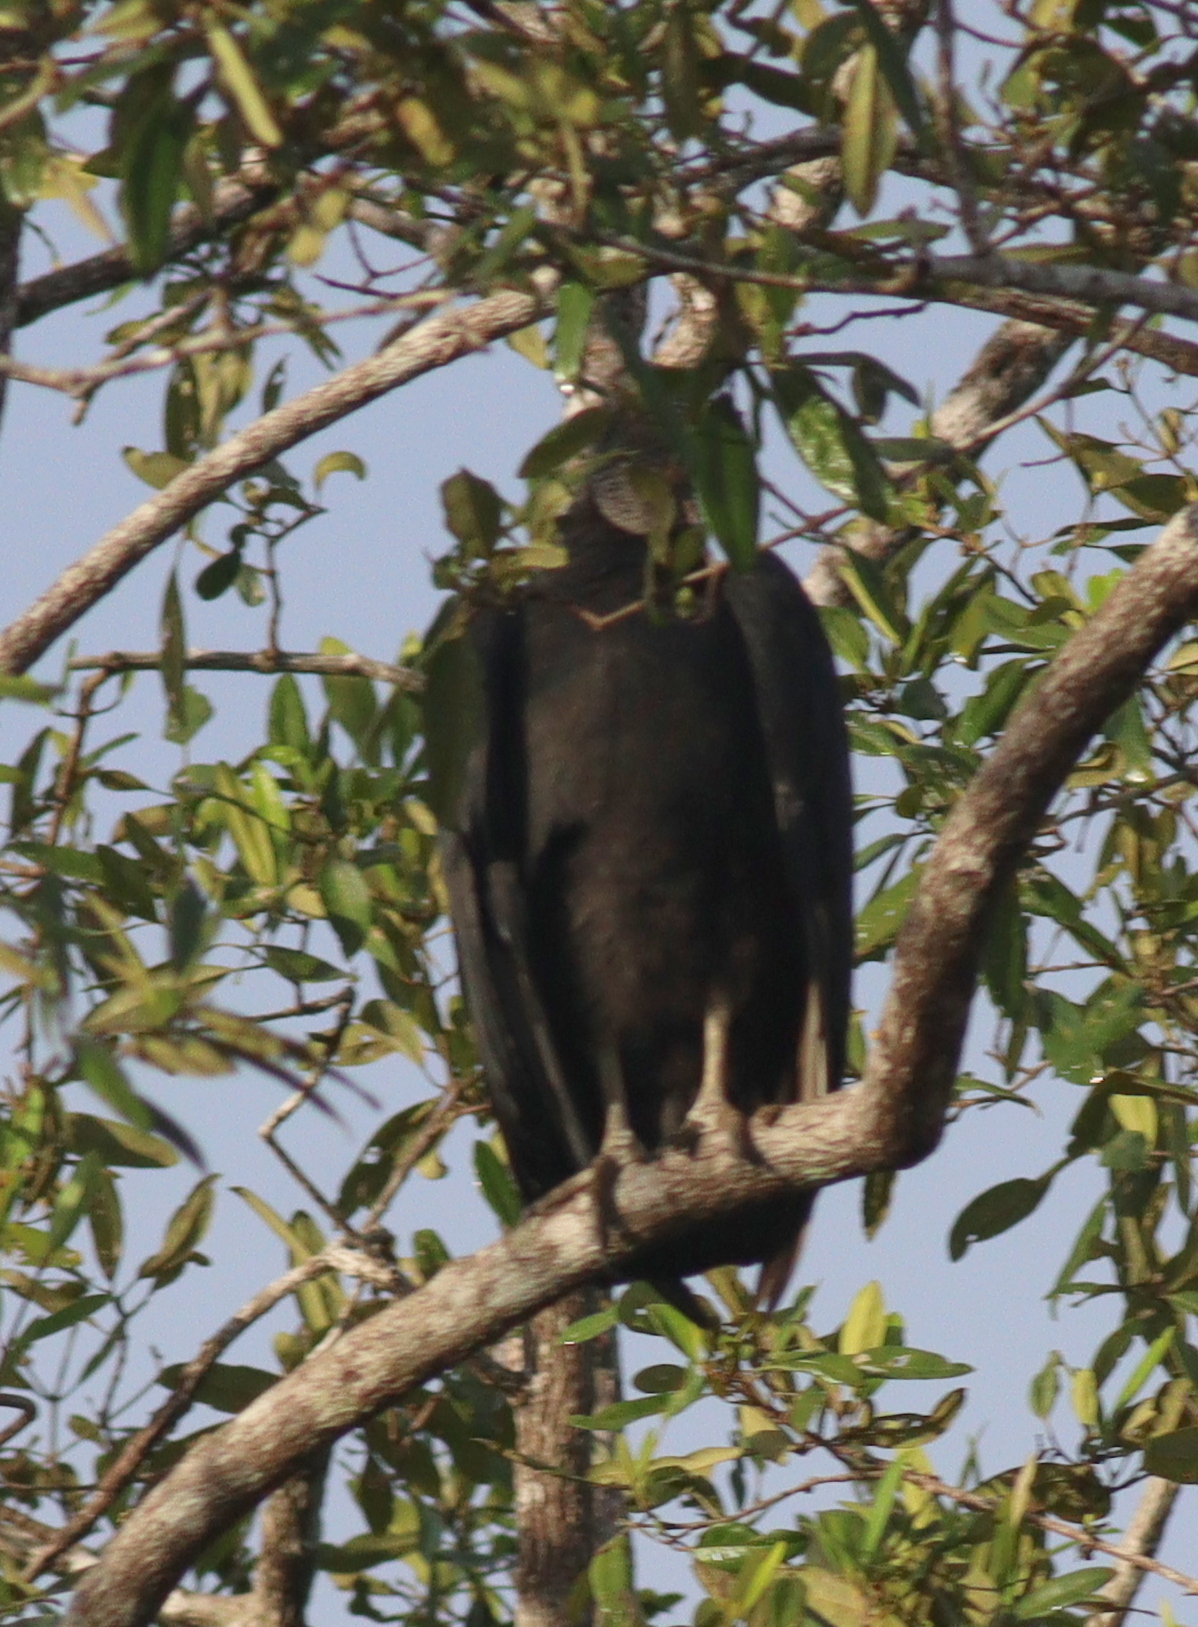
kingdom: Animalia
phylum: Chordata
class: Aves
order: Accipitriformes
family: Cathartidae
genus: Coragyps
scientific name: Coragyps atratus
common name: Black vulture
